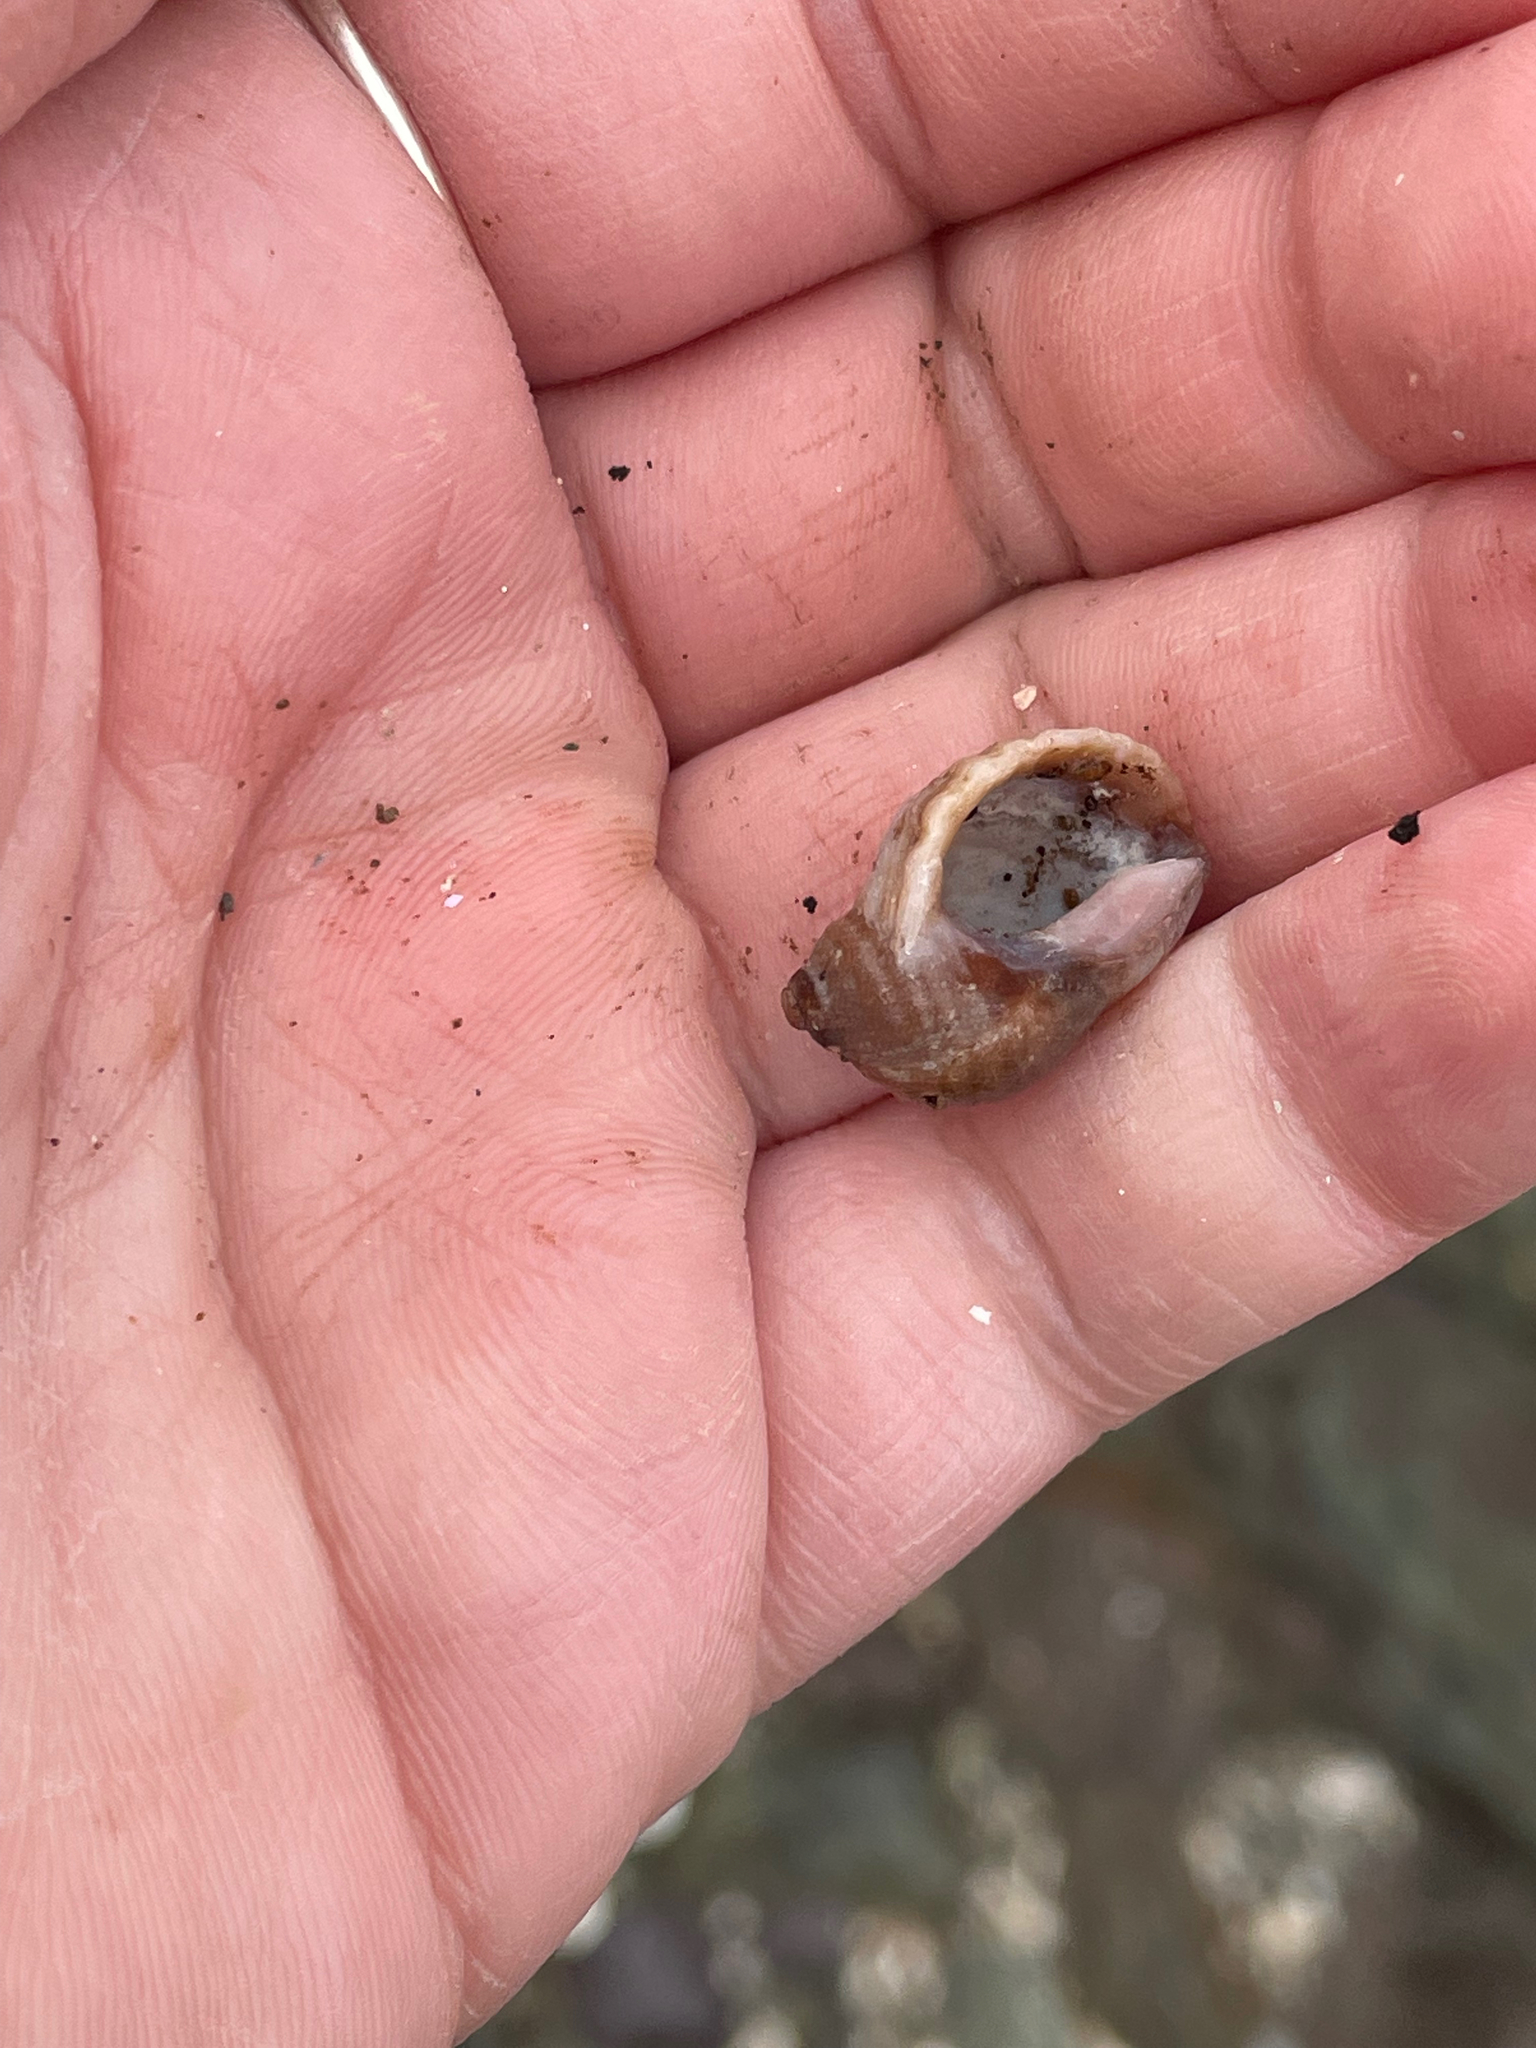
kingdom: Animalia
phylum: Mollusca
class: Gastropoda
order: Neogastropoda
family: Muricidae
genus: Nucella
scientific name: Nucella lapillus
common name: Dog whelk
